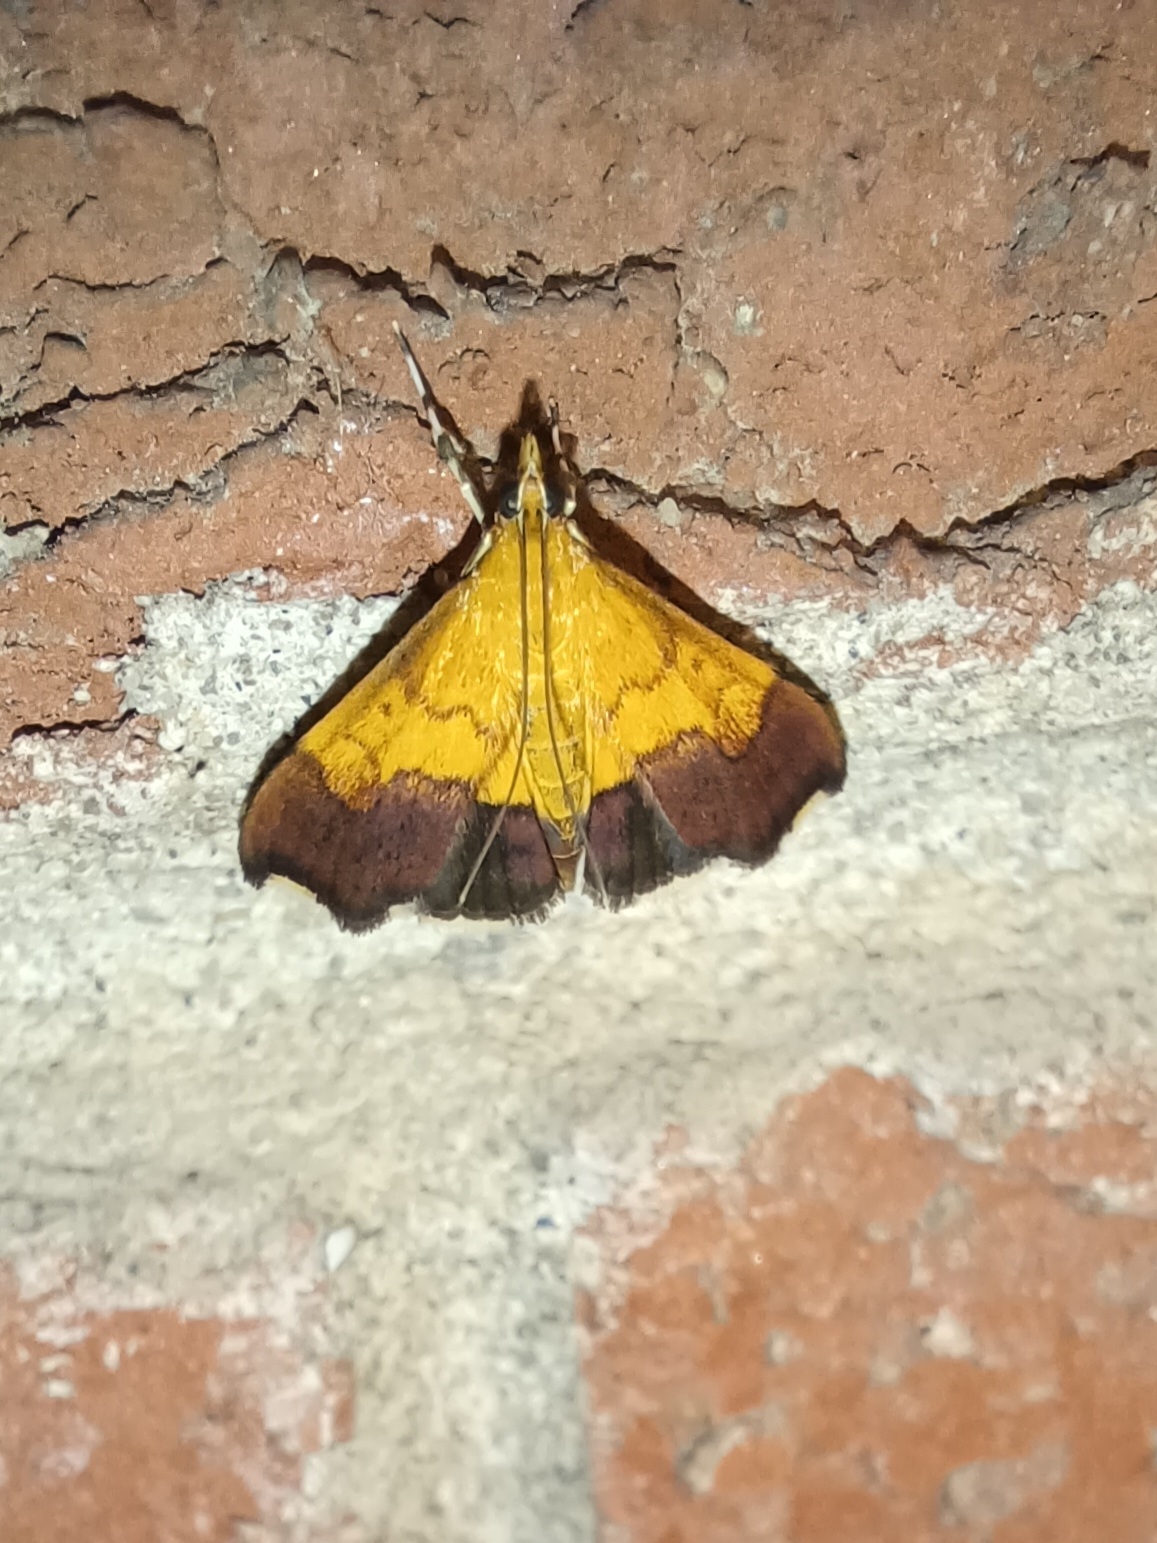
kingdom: Animalia
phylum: Arthropoda
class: Insecta
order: Lepidoptera
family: Crambidae
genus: Pyrausta
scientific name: Pyrausta bicoloralis
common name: Bicolored pyrausta moth
